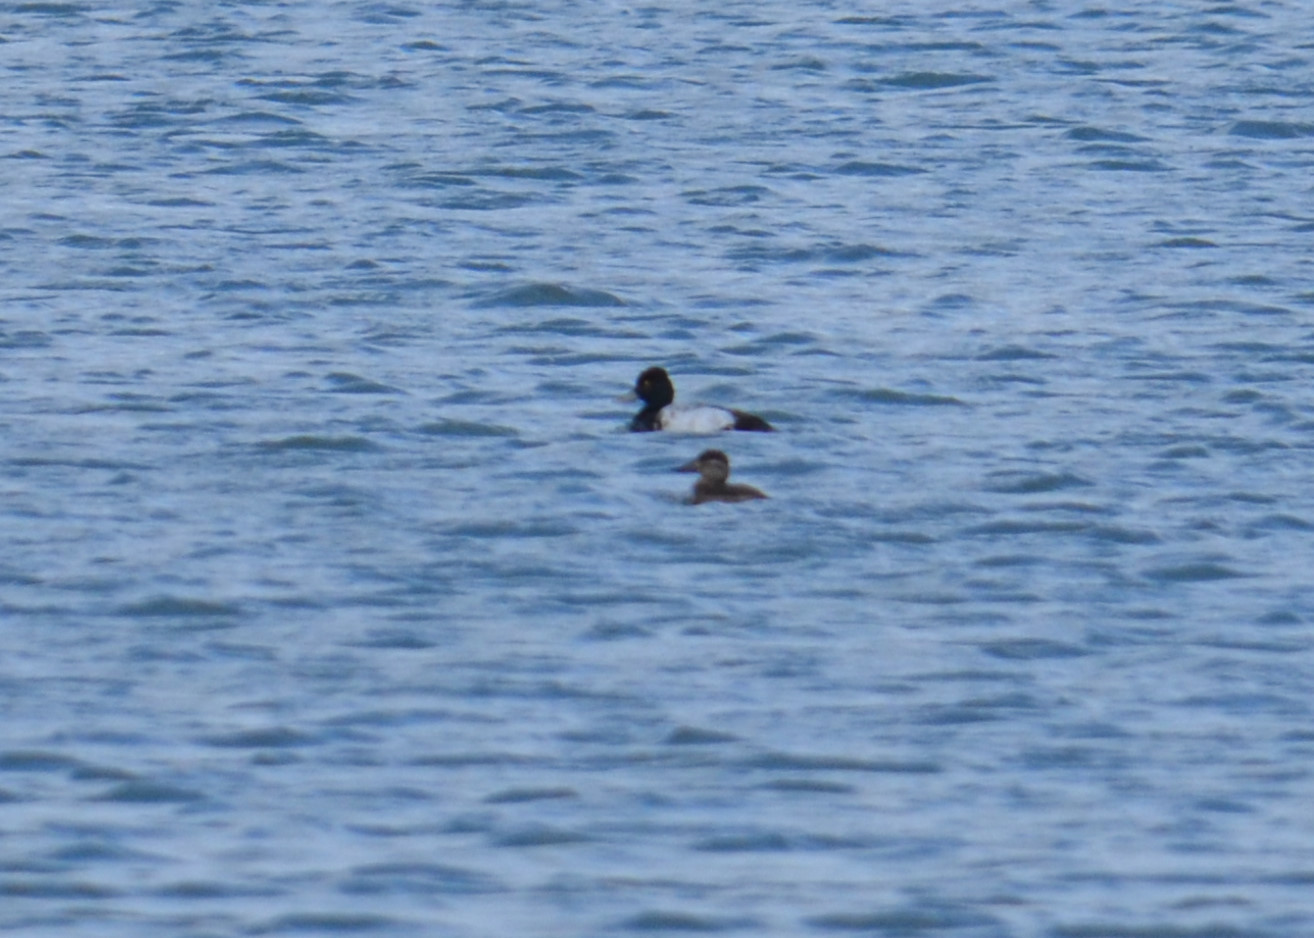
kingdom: Animalia
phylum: Chordata
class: Aves
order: Anseriformes
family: Anatidae
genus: Aythya
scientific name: Aythya affinis
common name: Lesser scaup
